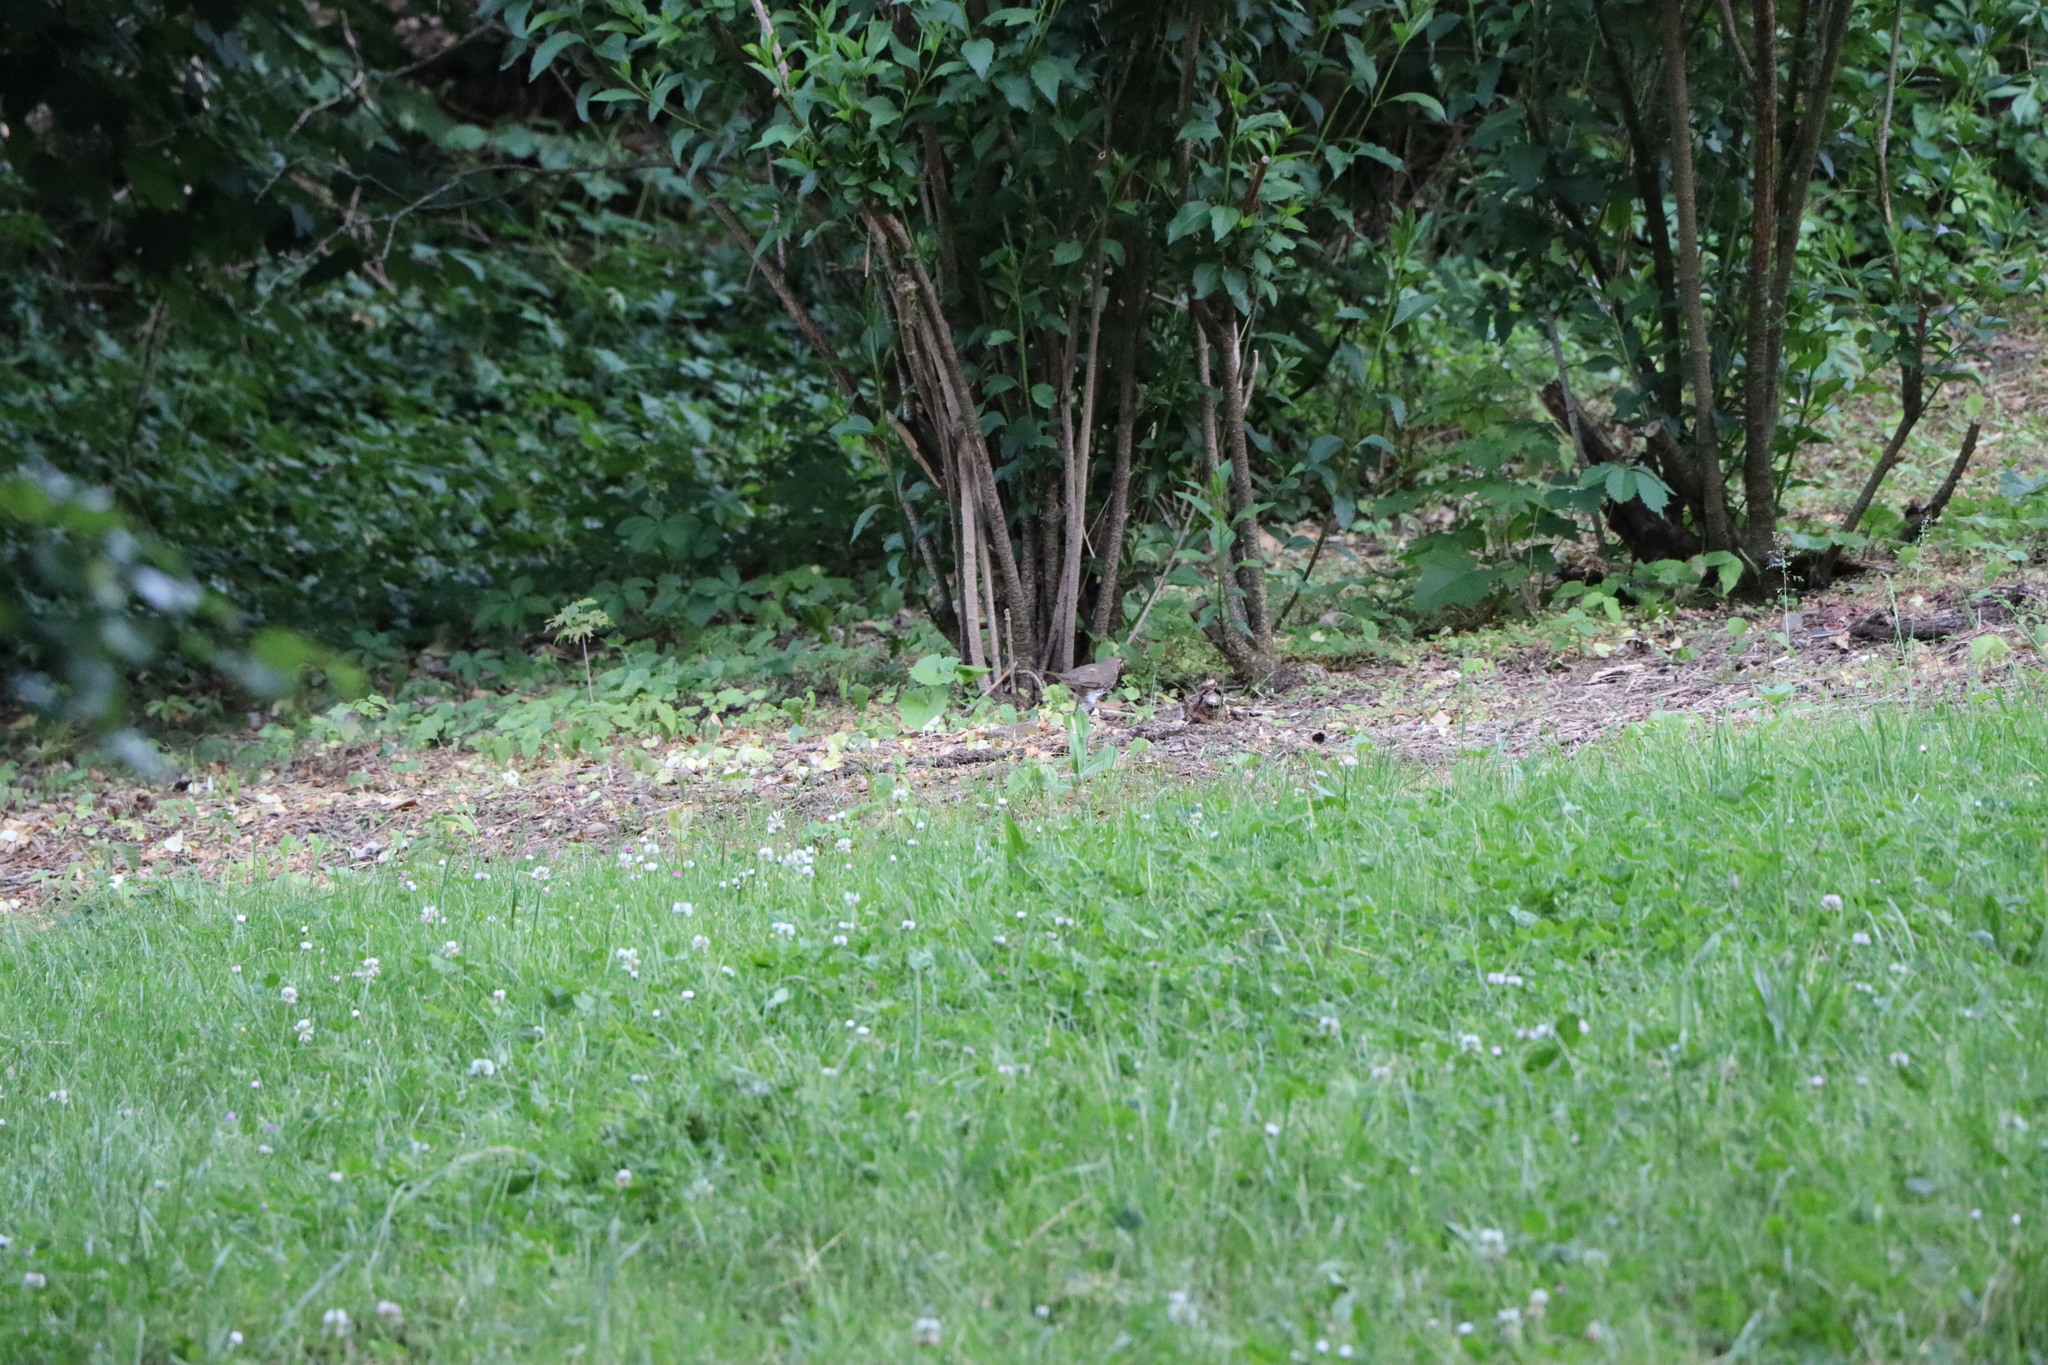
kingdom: Animalia
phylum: Chordata
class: Aves
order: Passeriformes
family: Turdidae
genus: Turdus
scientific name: Turdus philomelos
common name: Song thrush
